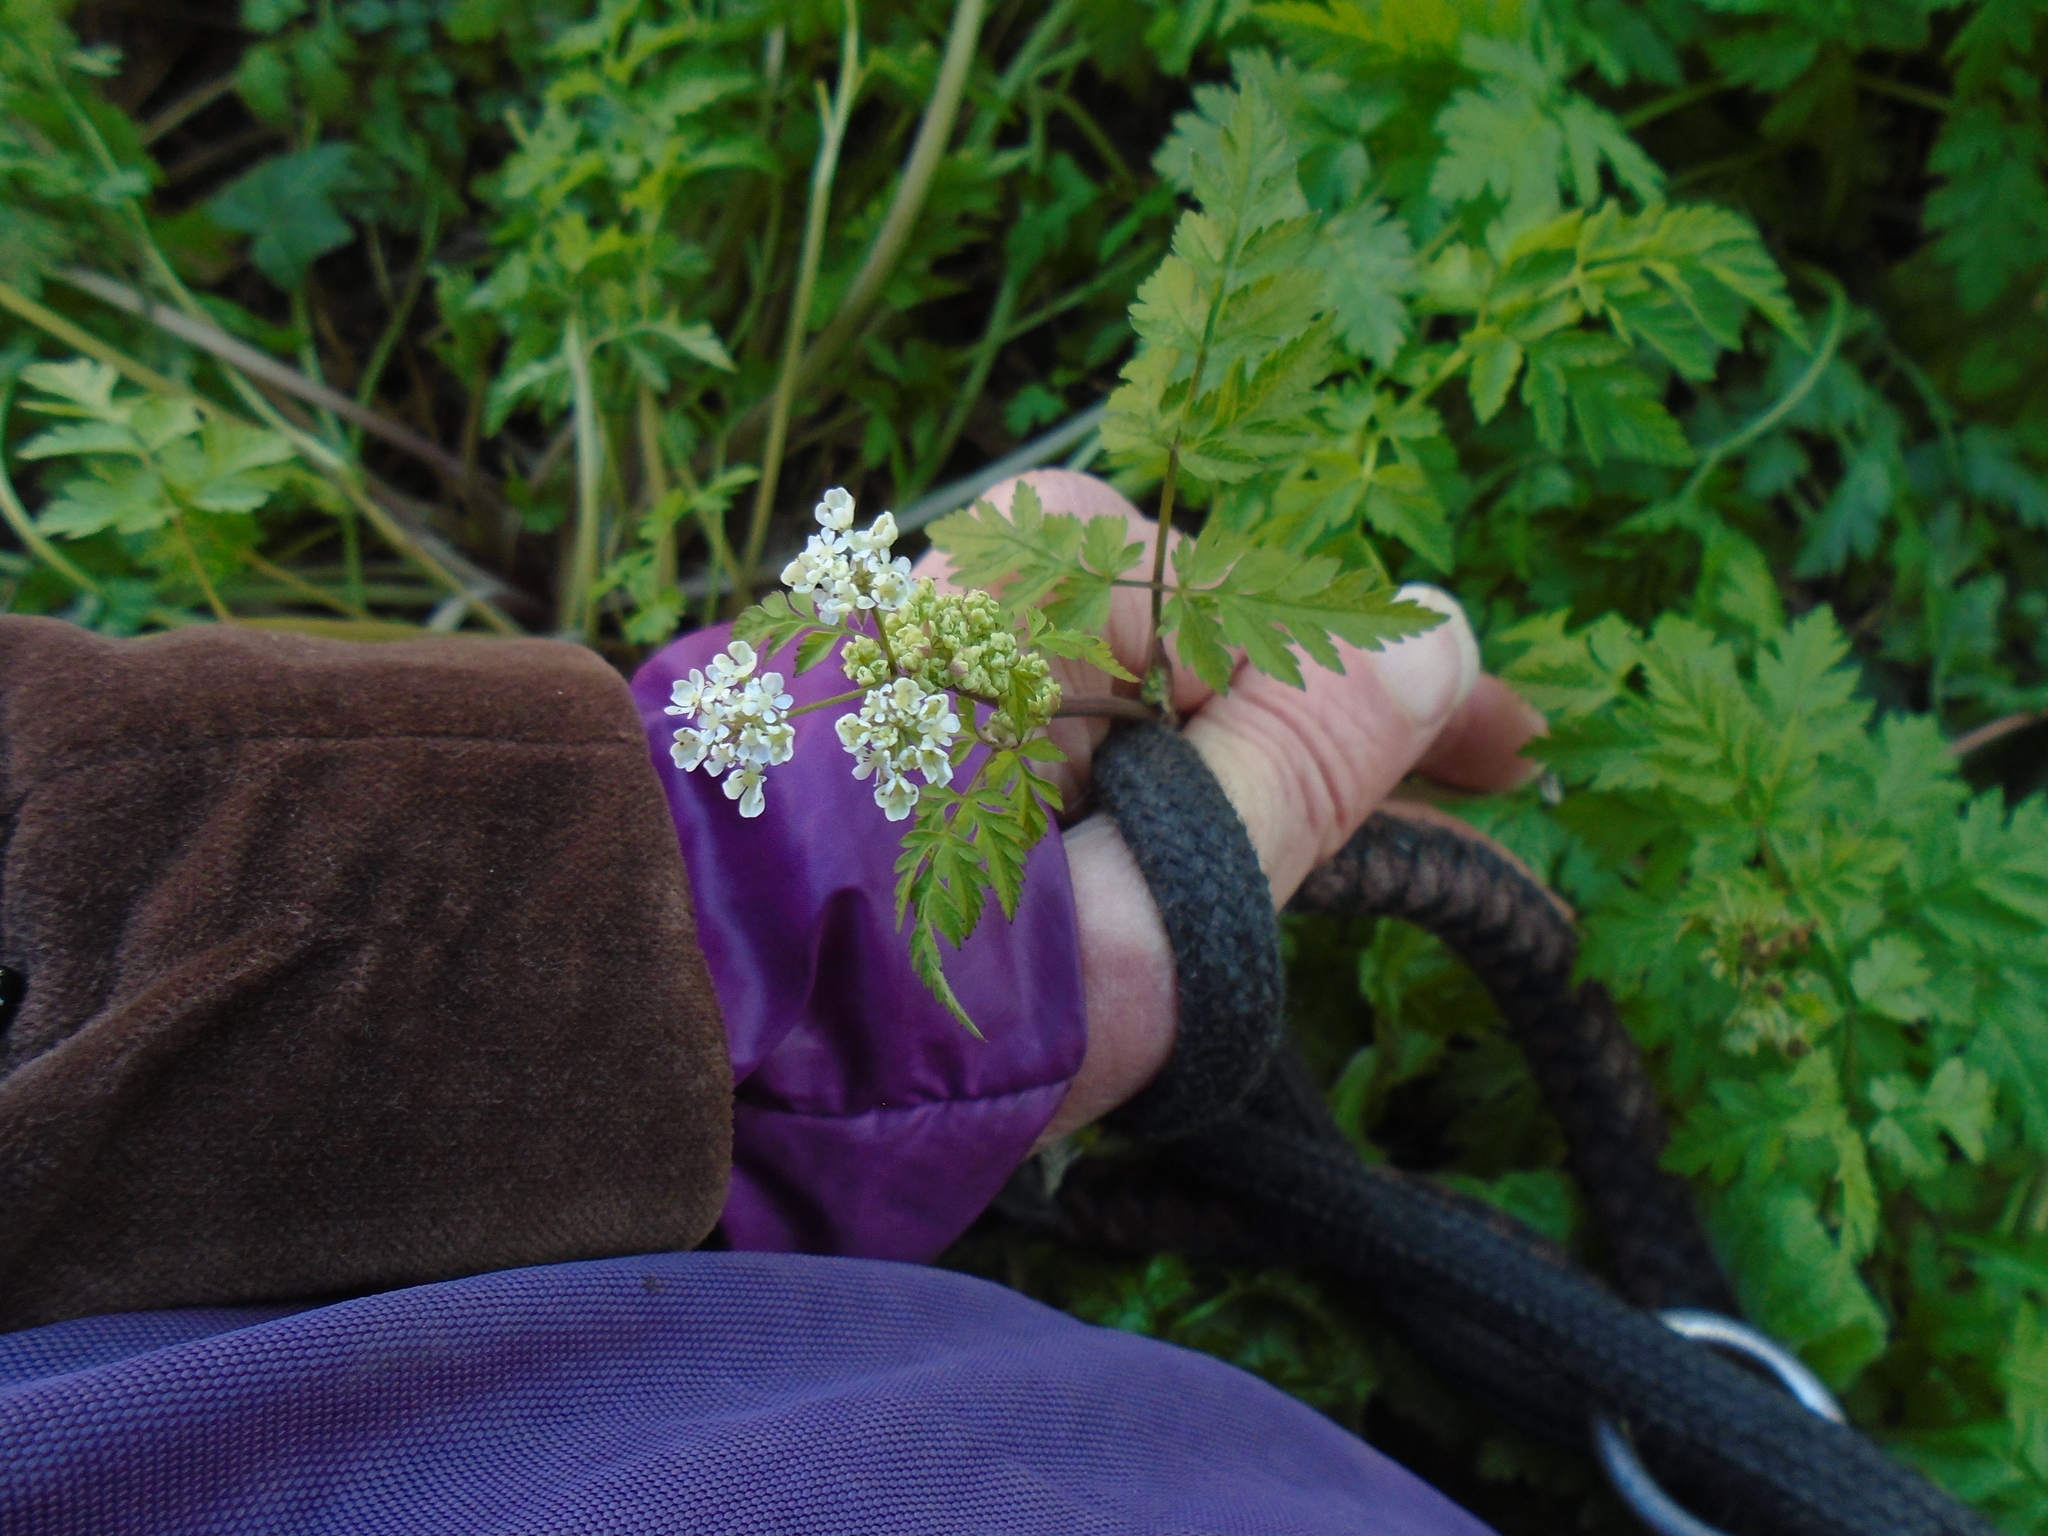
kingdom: Plantae
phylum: Tracheophyta
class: Magnoliopsida
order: Apiales
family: Apiaceae
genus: Anthriscus
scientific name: Anthriscus sylvestris
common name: Cow parsley
